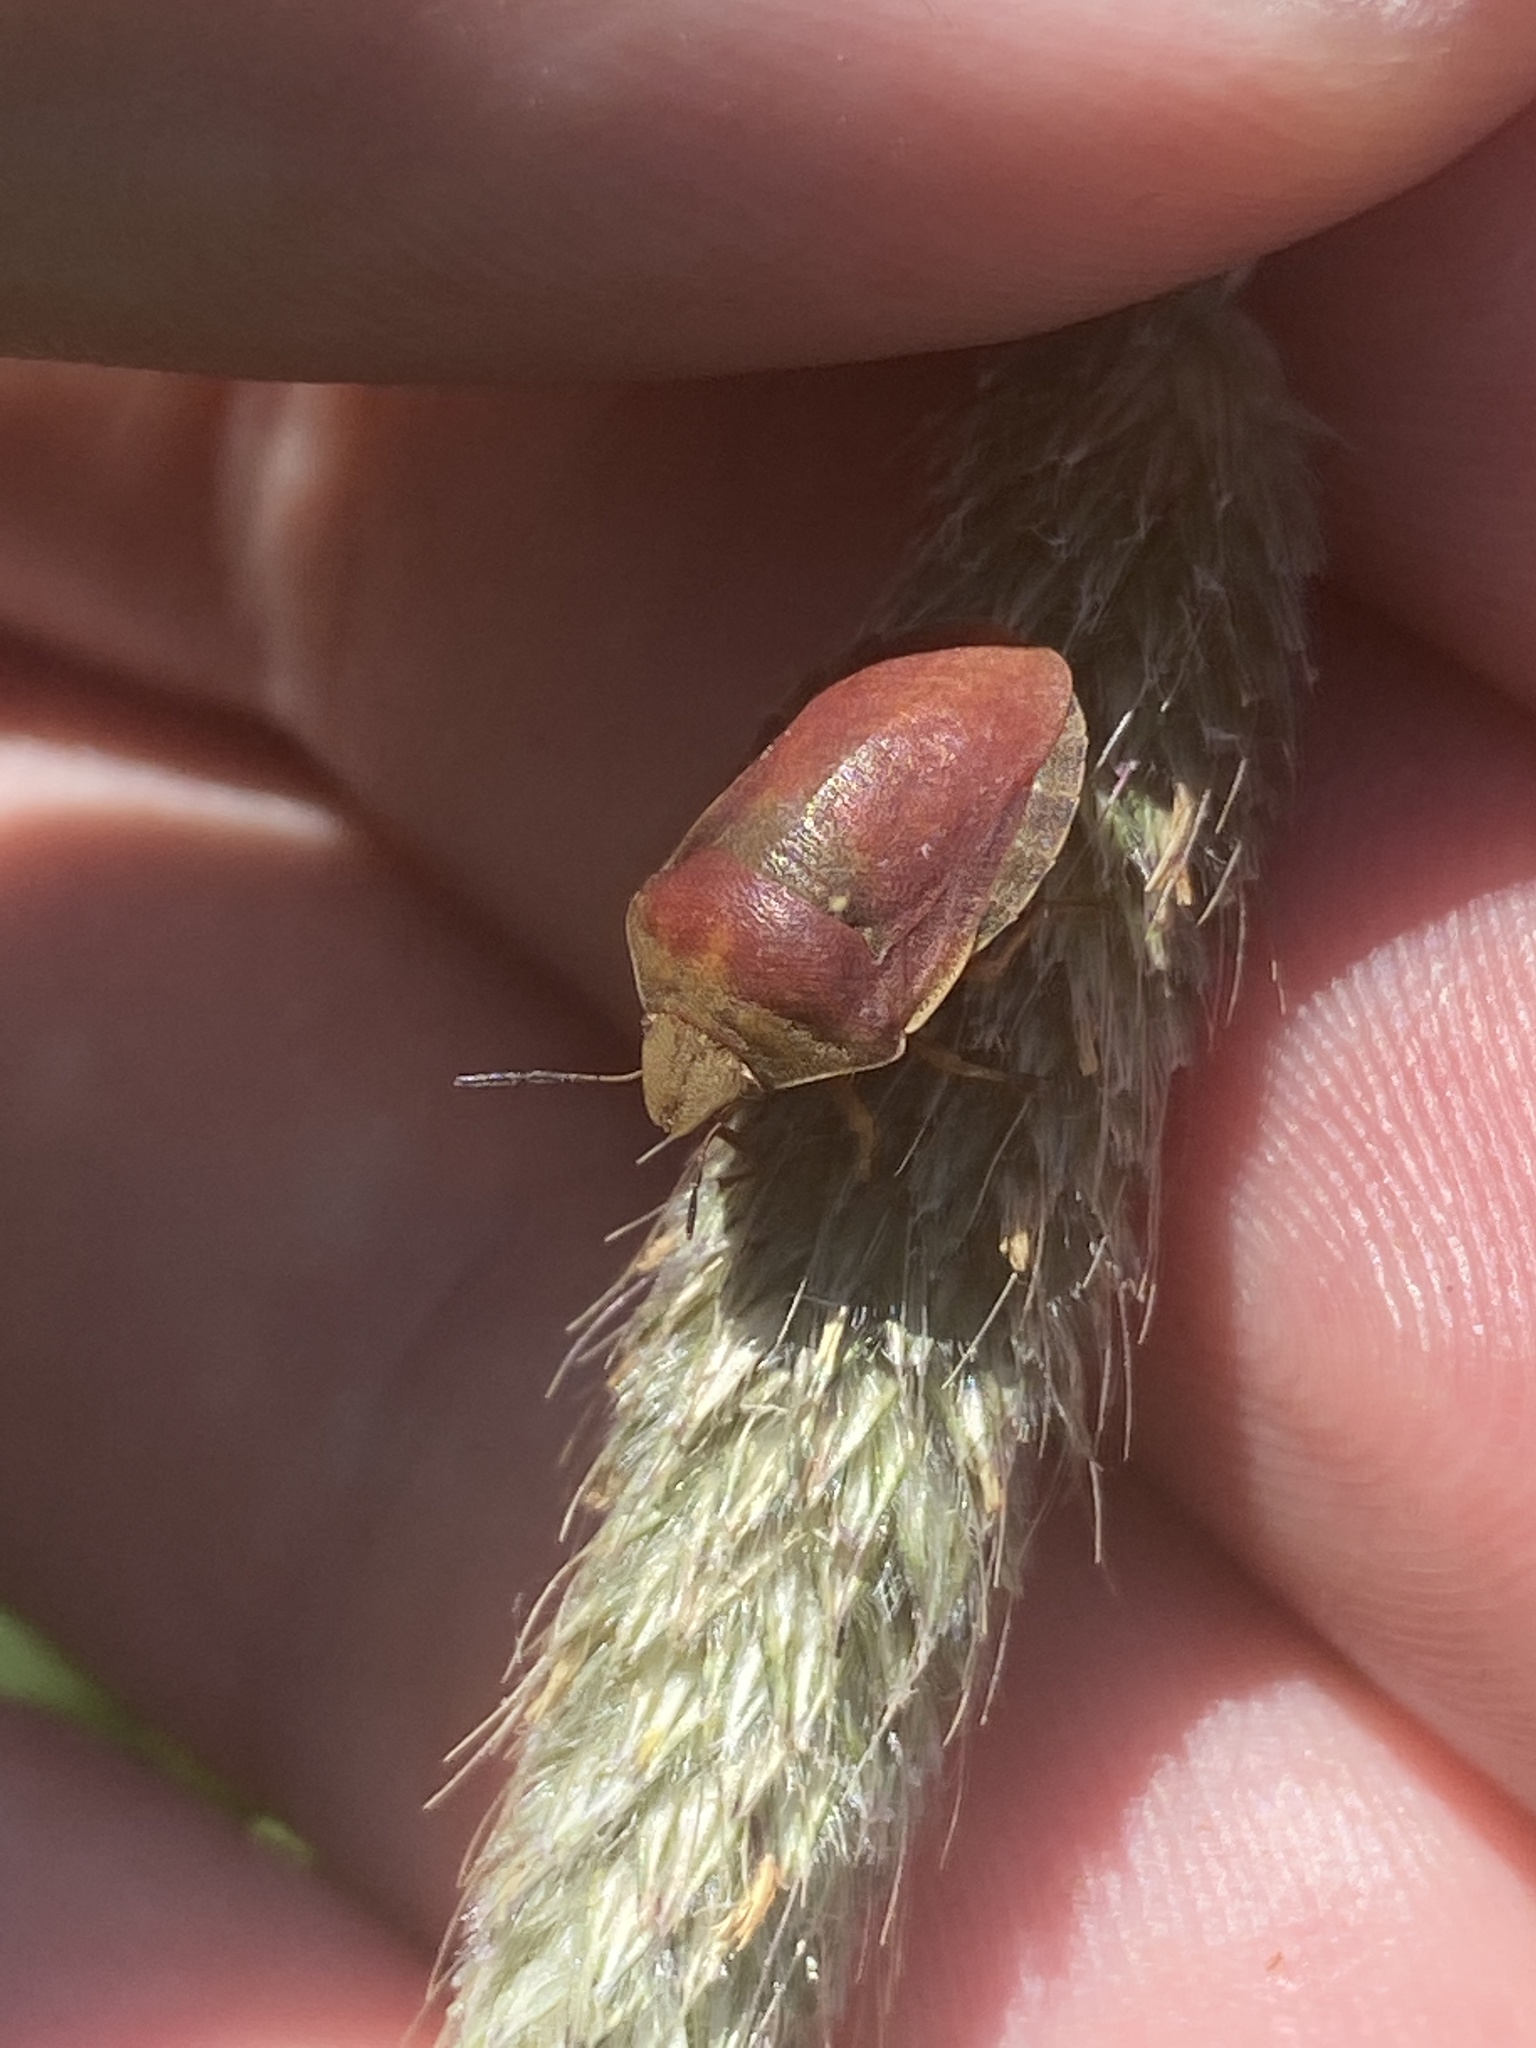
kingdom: Animalia
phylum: Arthropoda
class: Insecta
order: Hemiptera
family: Scutelleridae
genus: Eurygaster
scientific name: Eurygaster testudinaria
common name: Tortoise bug
